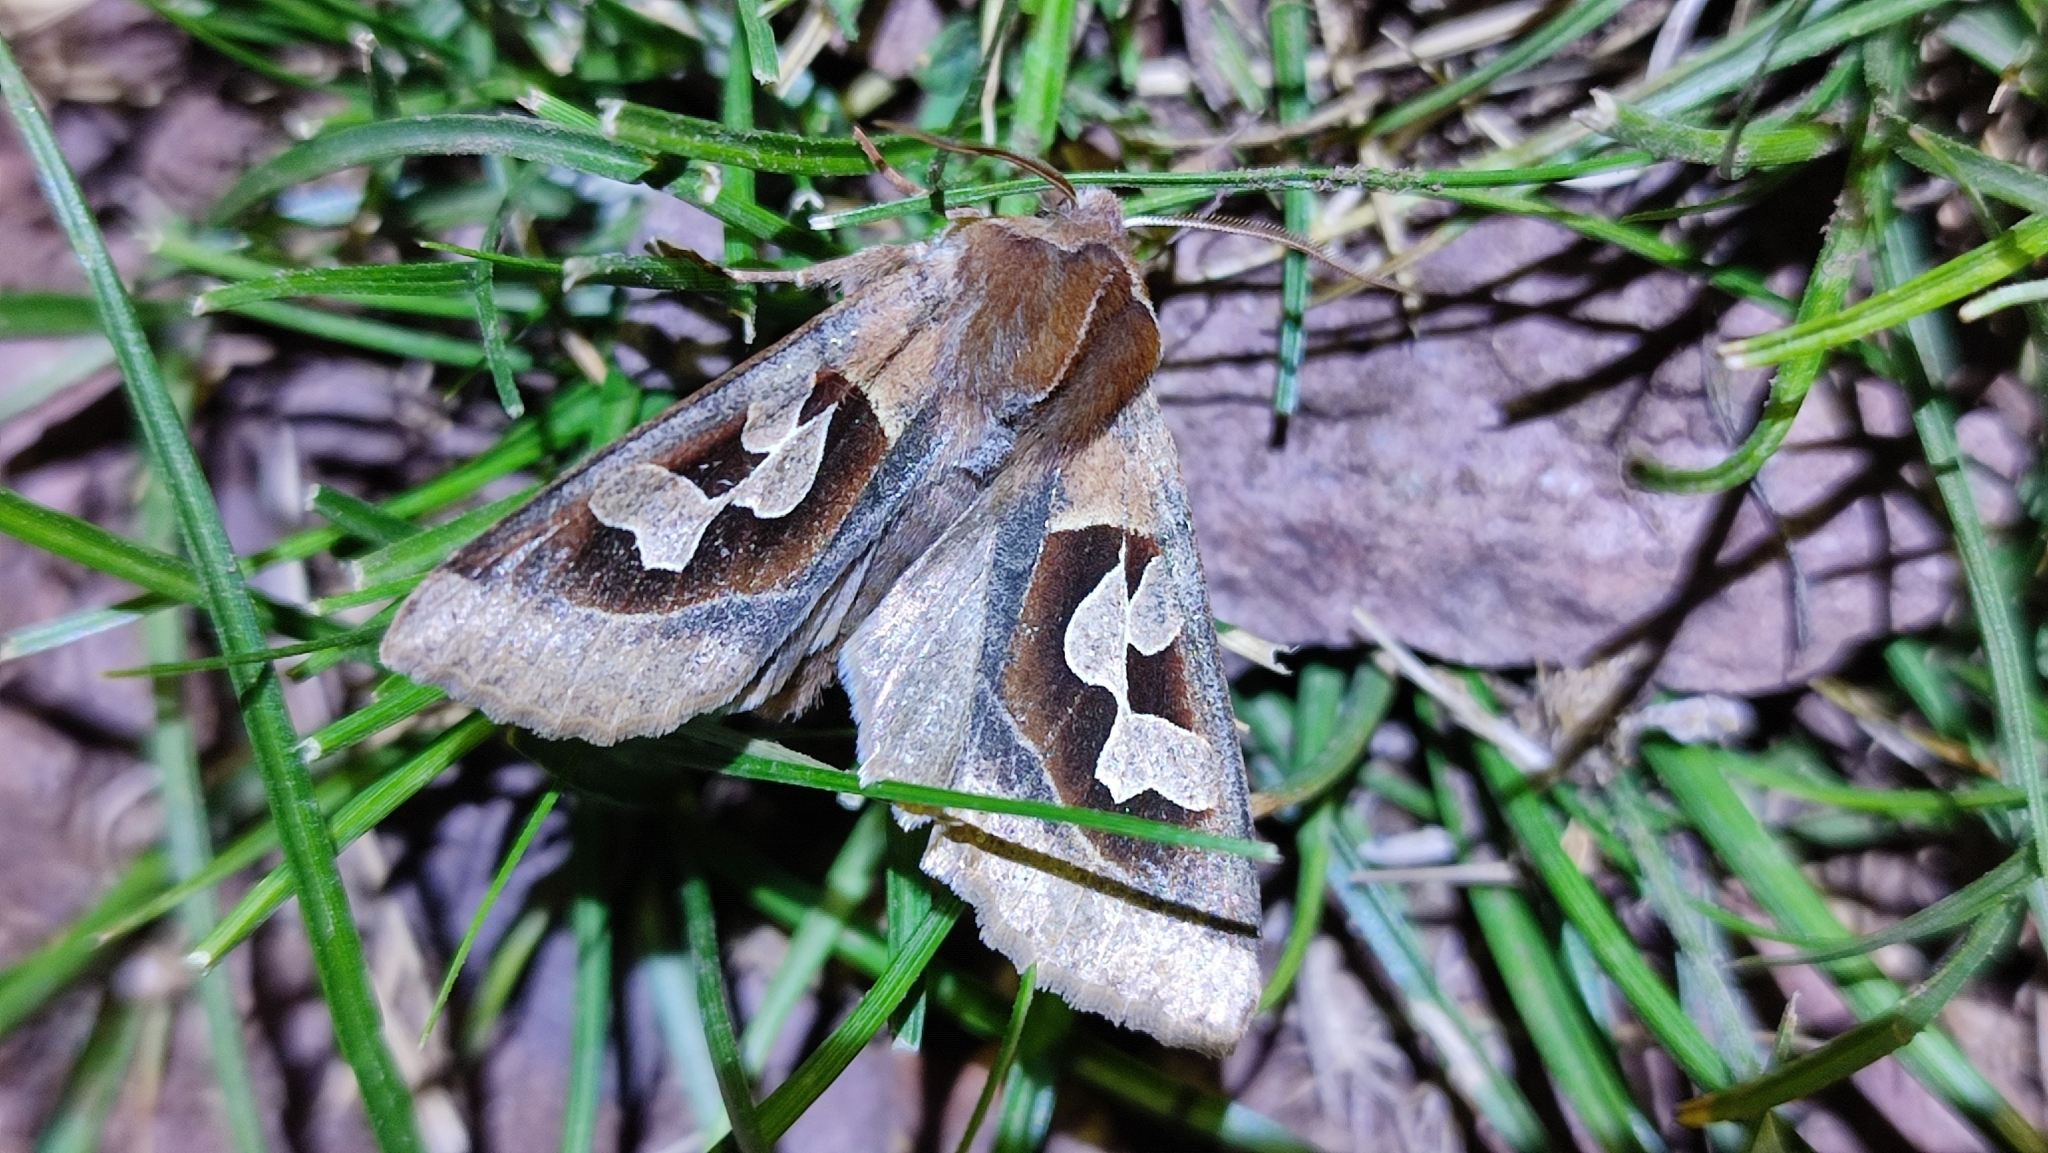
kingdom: Animalia
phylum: Arthropoda
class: Insecta
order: Lepidoptera
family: Noctuidae
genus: Perigrapha
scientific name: Perigrapha circumducta
